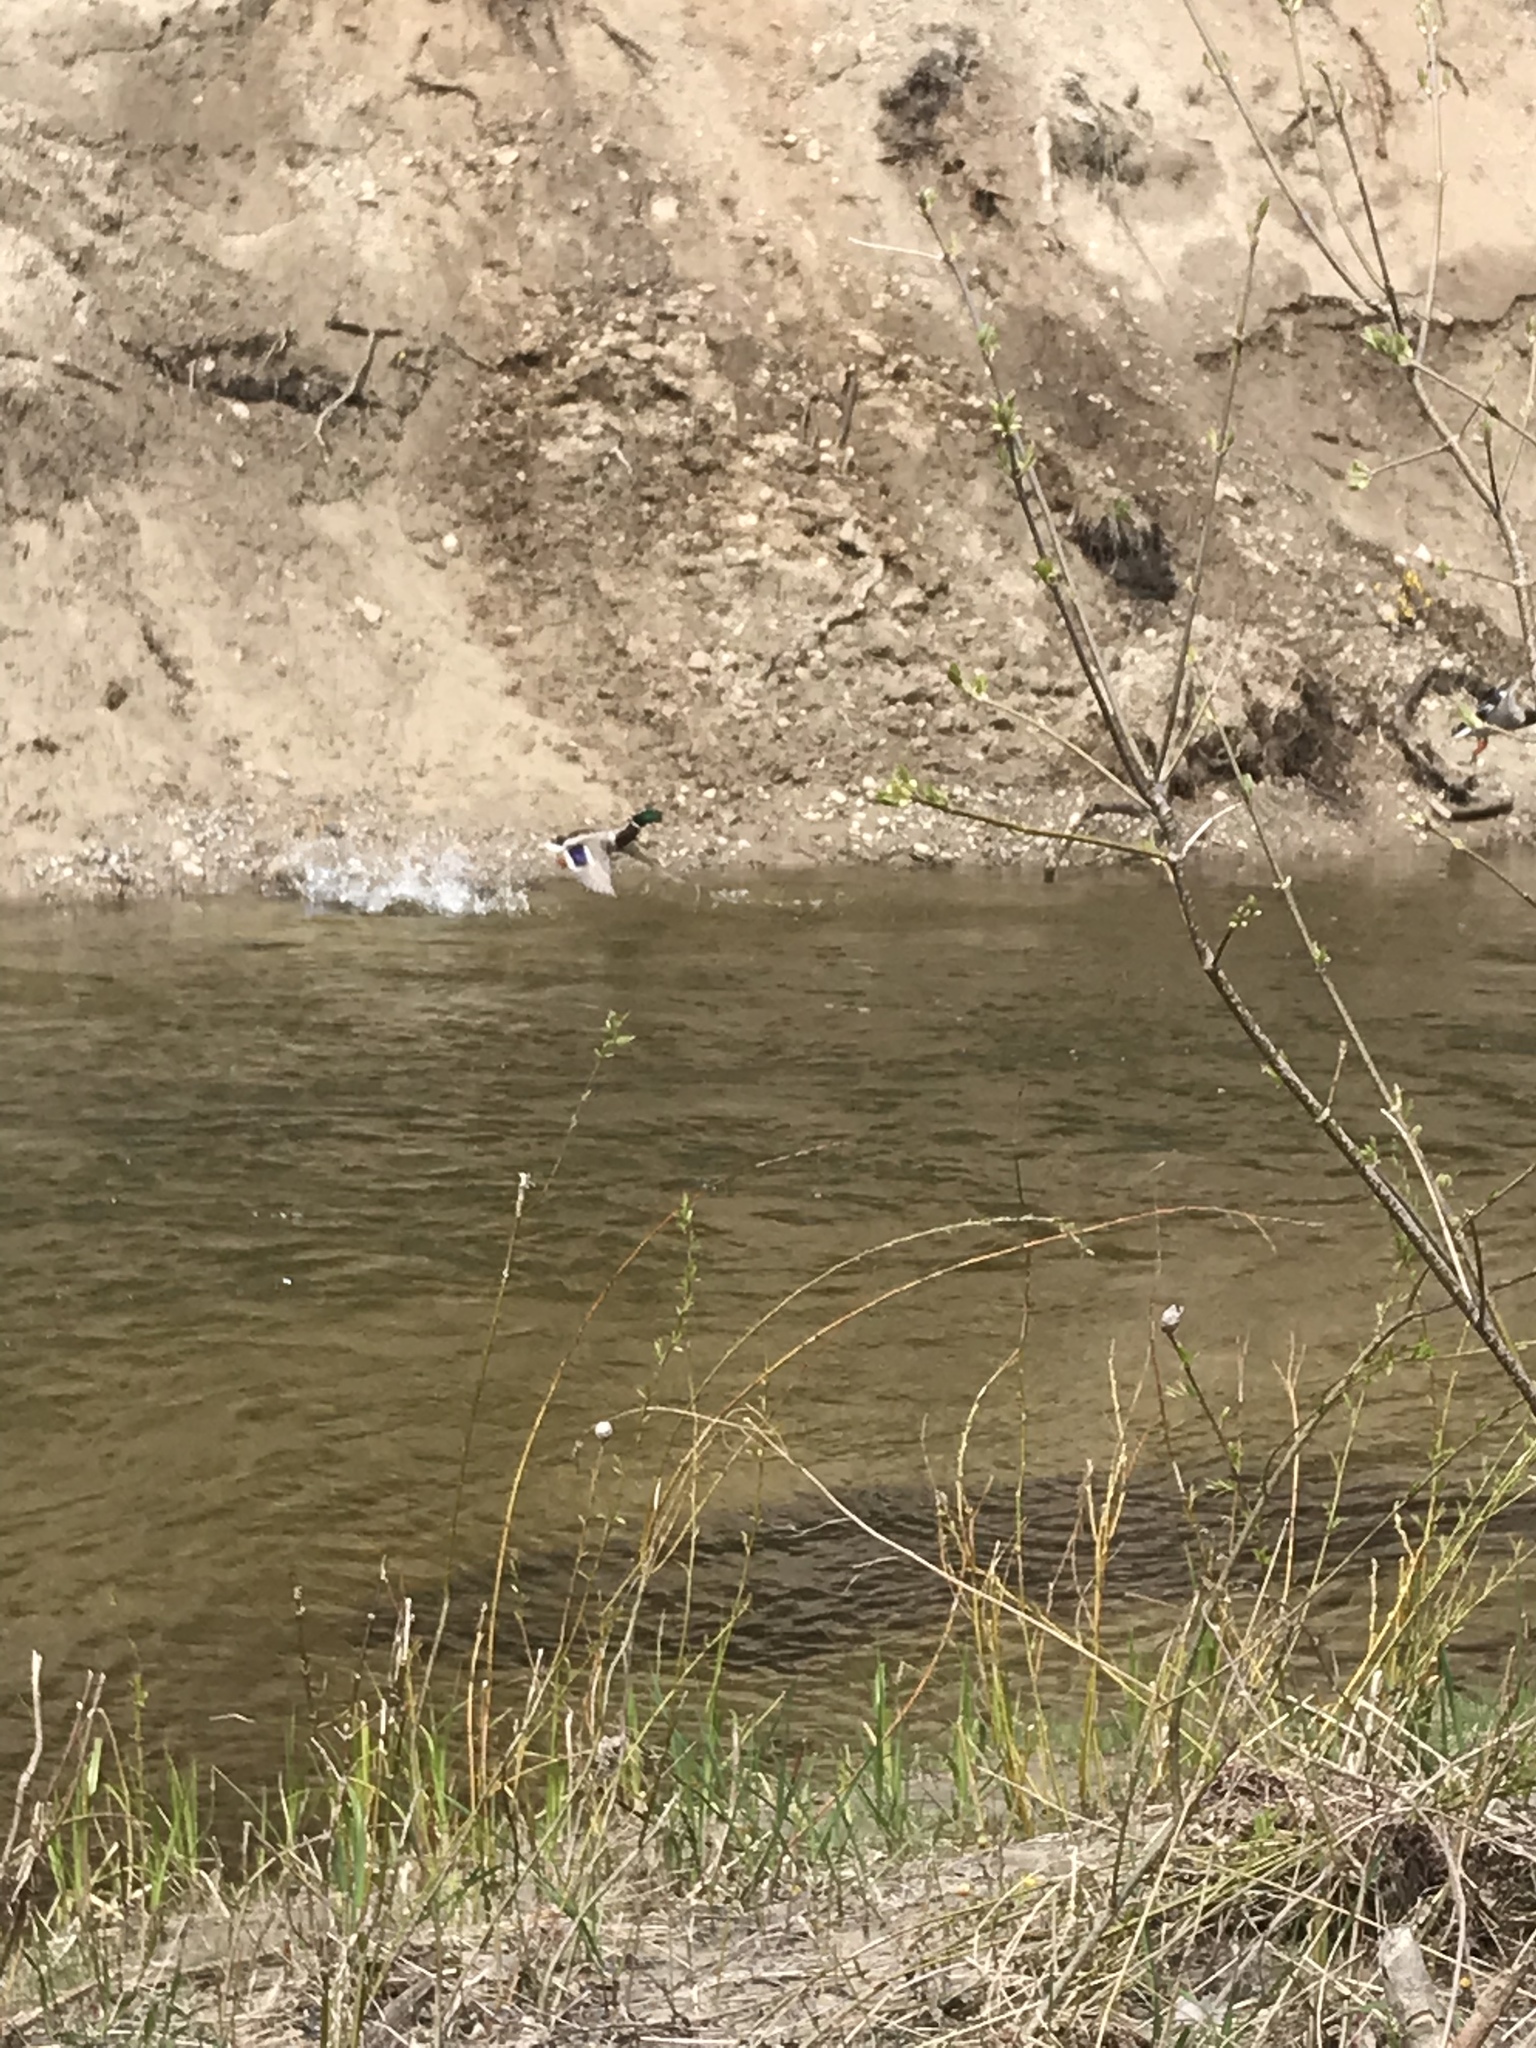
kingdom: Animalia
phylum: Chordata
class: Aves
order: Anseriformes
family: Anatidae
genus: Anas
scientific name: Anas platyrhynchos
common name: Mallard
